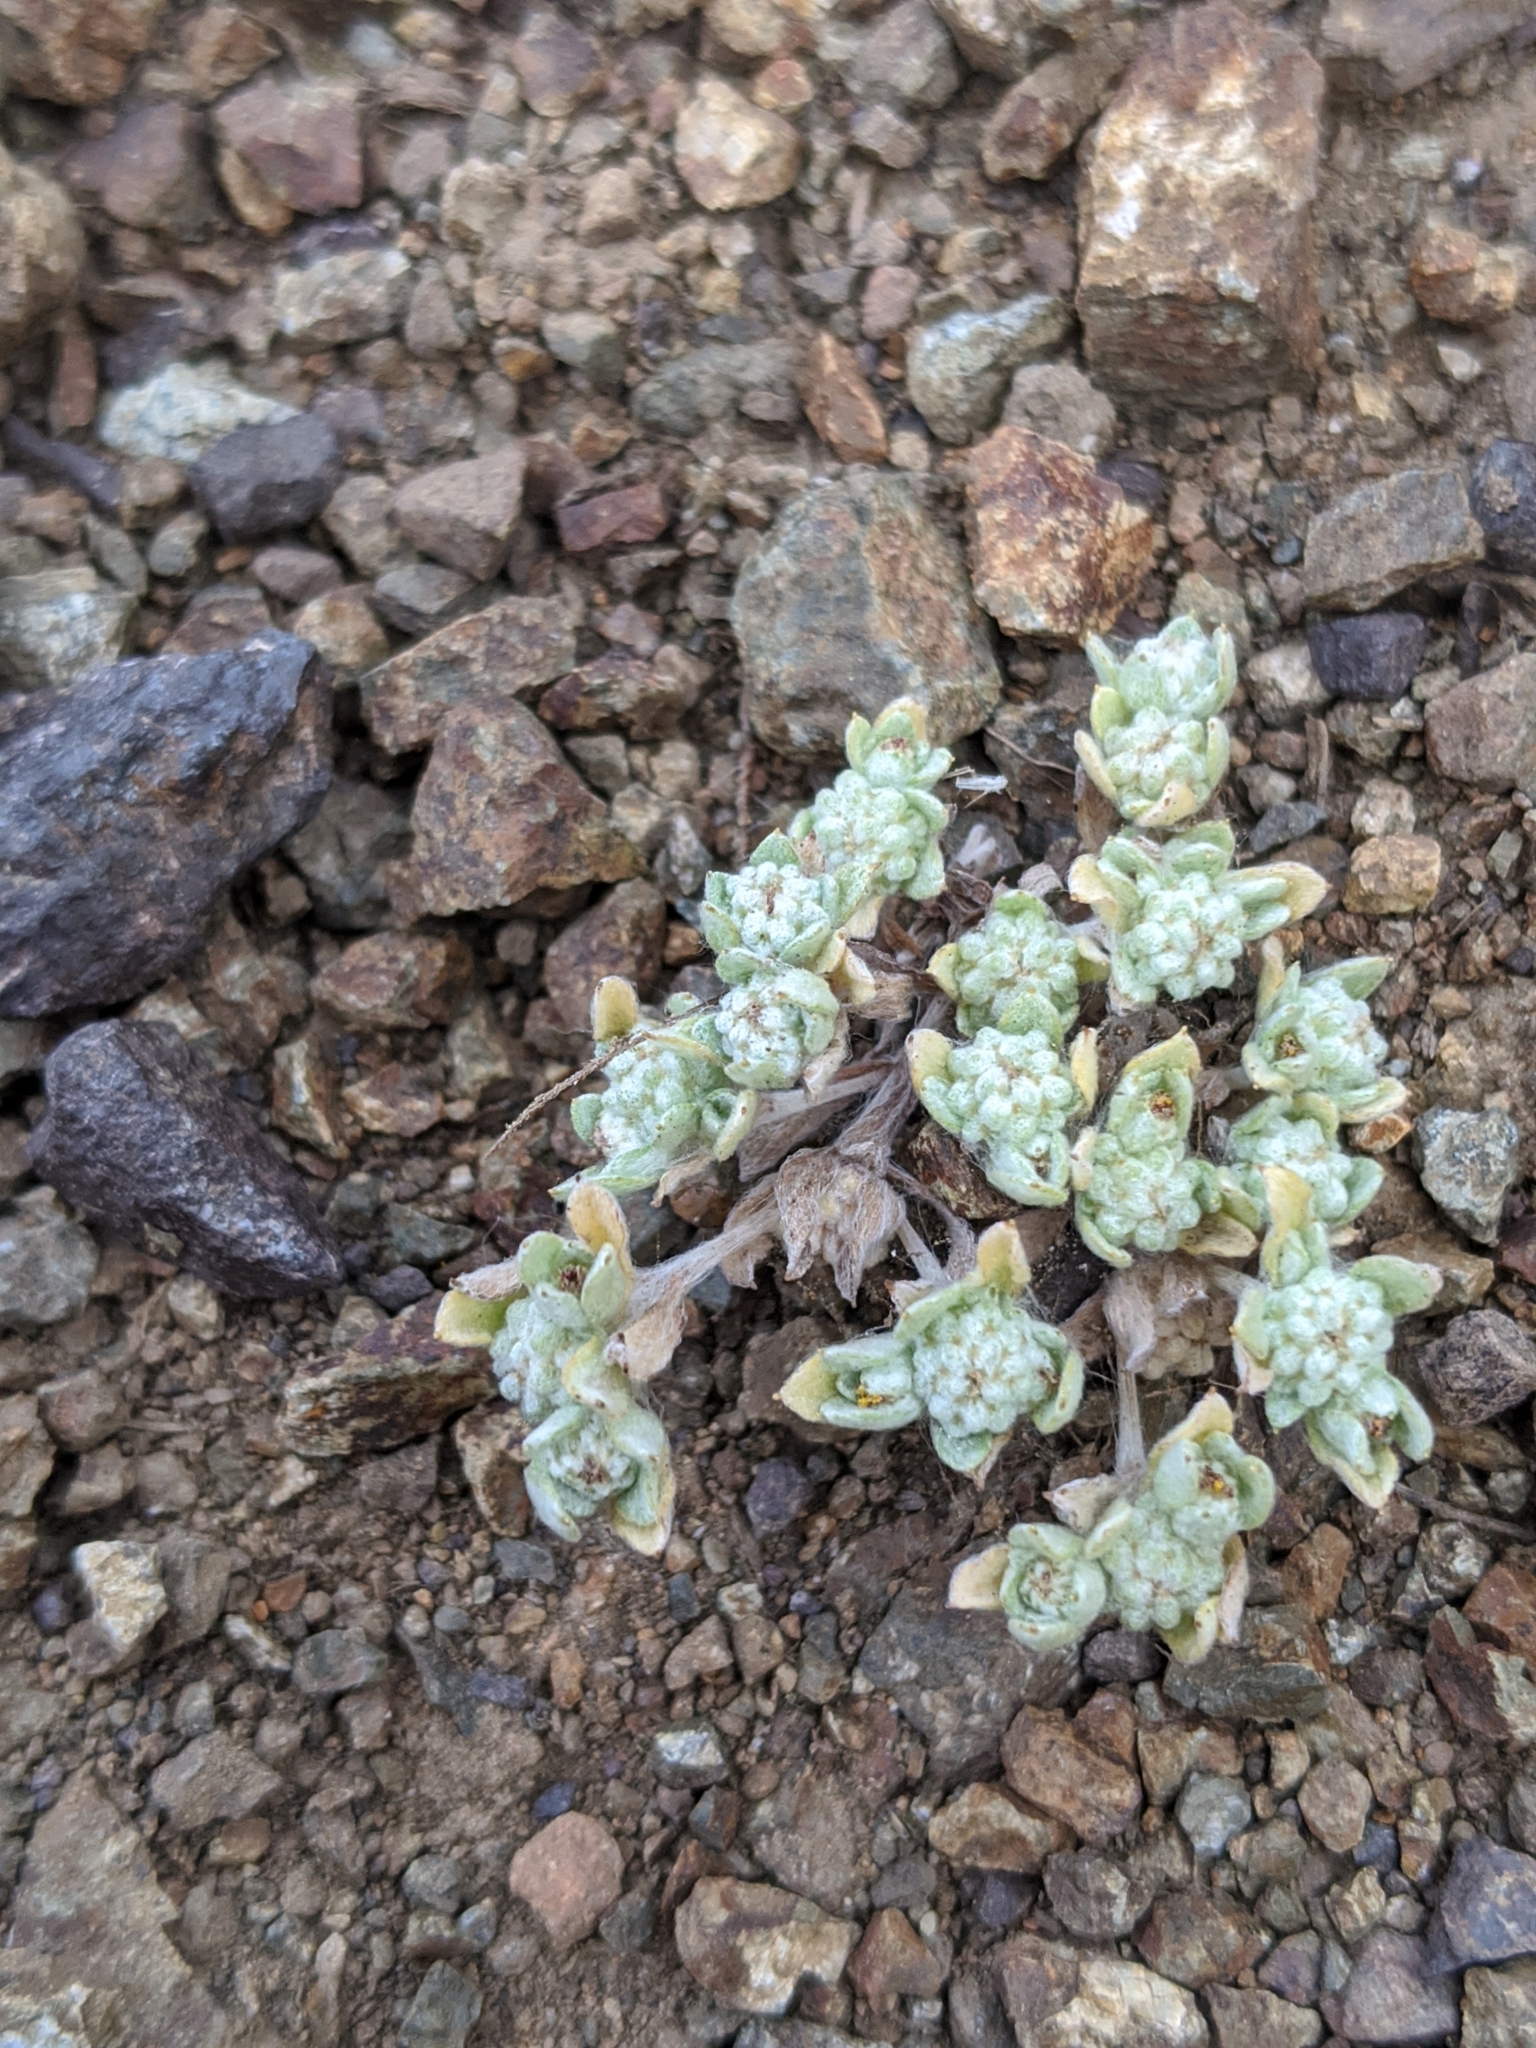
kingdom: Plantae
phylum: Tracheophyta
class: Magnoliopsida
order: Asterales
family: Asteraceae
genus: Psilocarphus
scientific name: Psilocarphus tenellus
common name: Slender woolly-marbles
